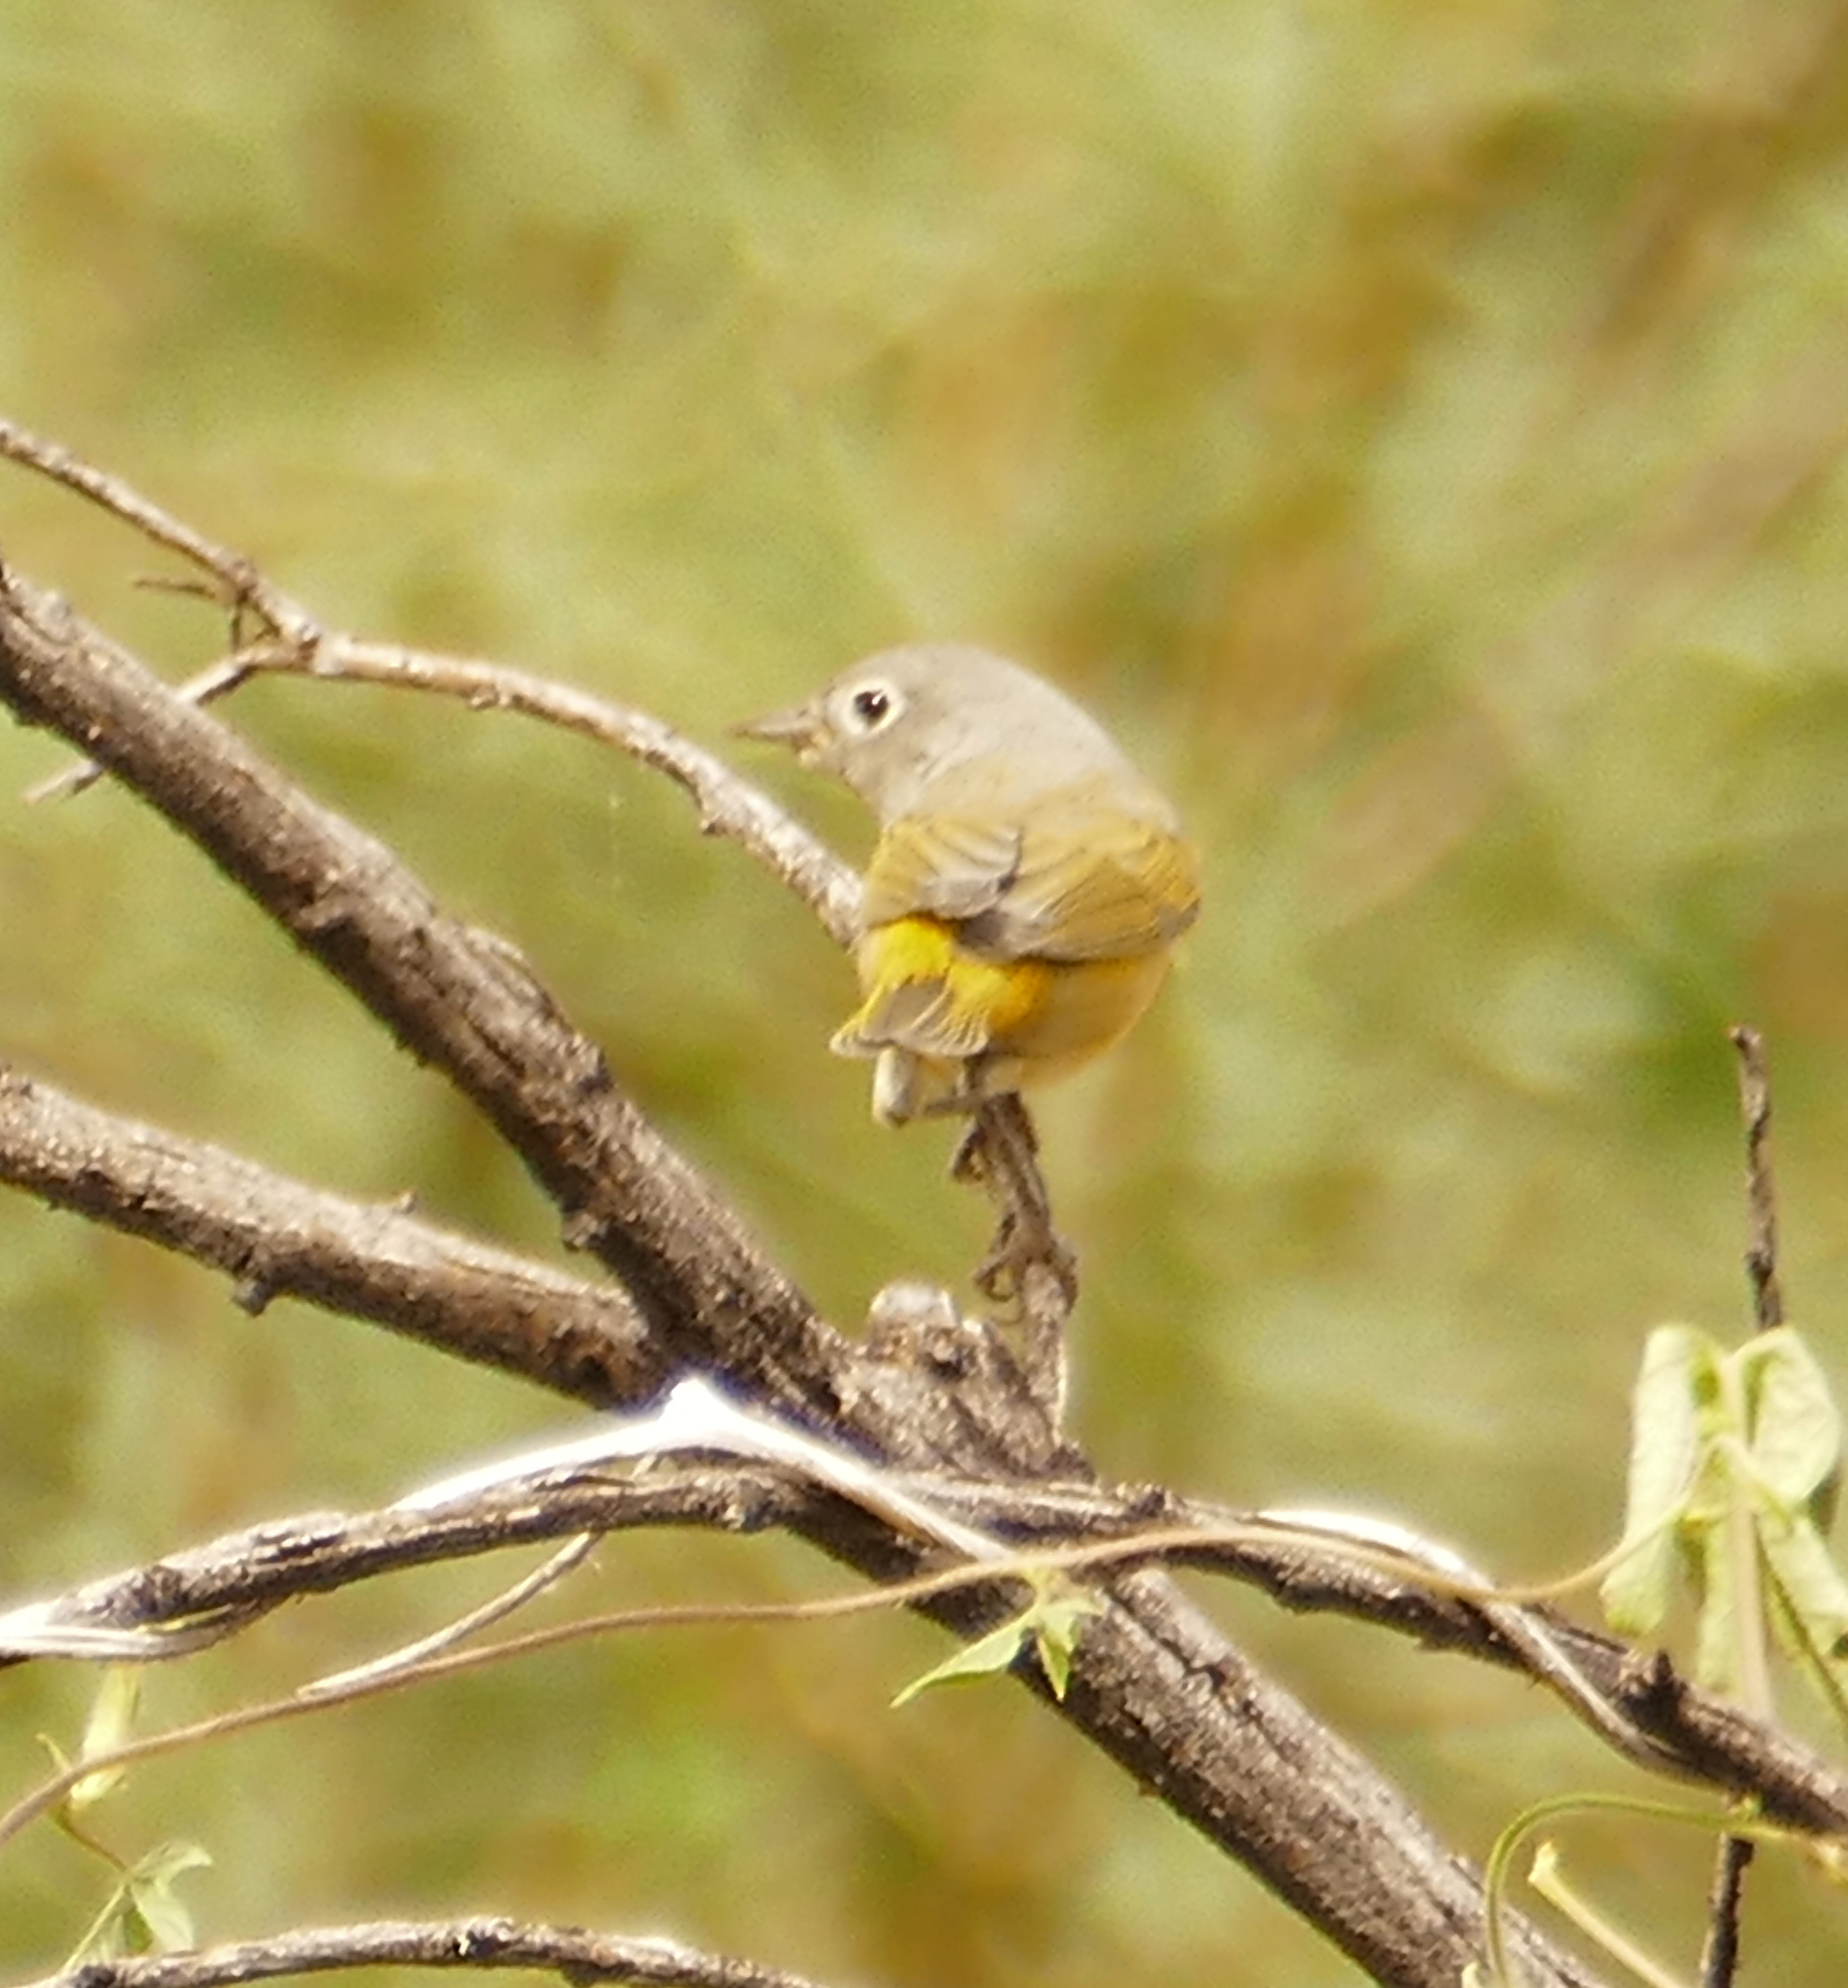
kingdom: Animalia
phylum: Chordata
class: Aves
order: Passeriformes
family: Parulidae
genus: Leiothlypis
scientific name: Leiothlypis ruficapilla
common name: Nashville warbler
